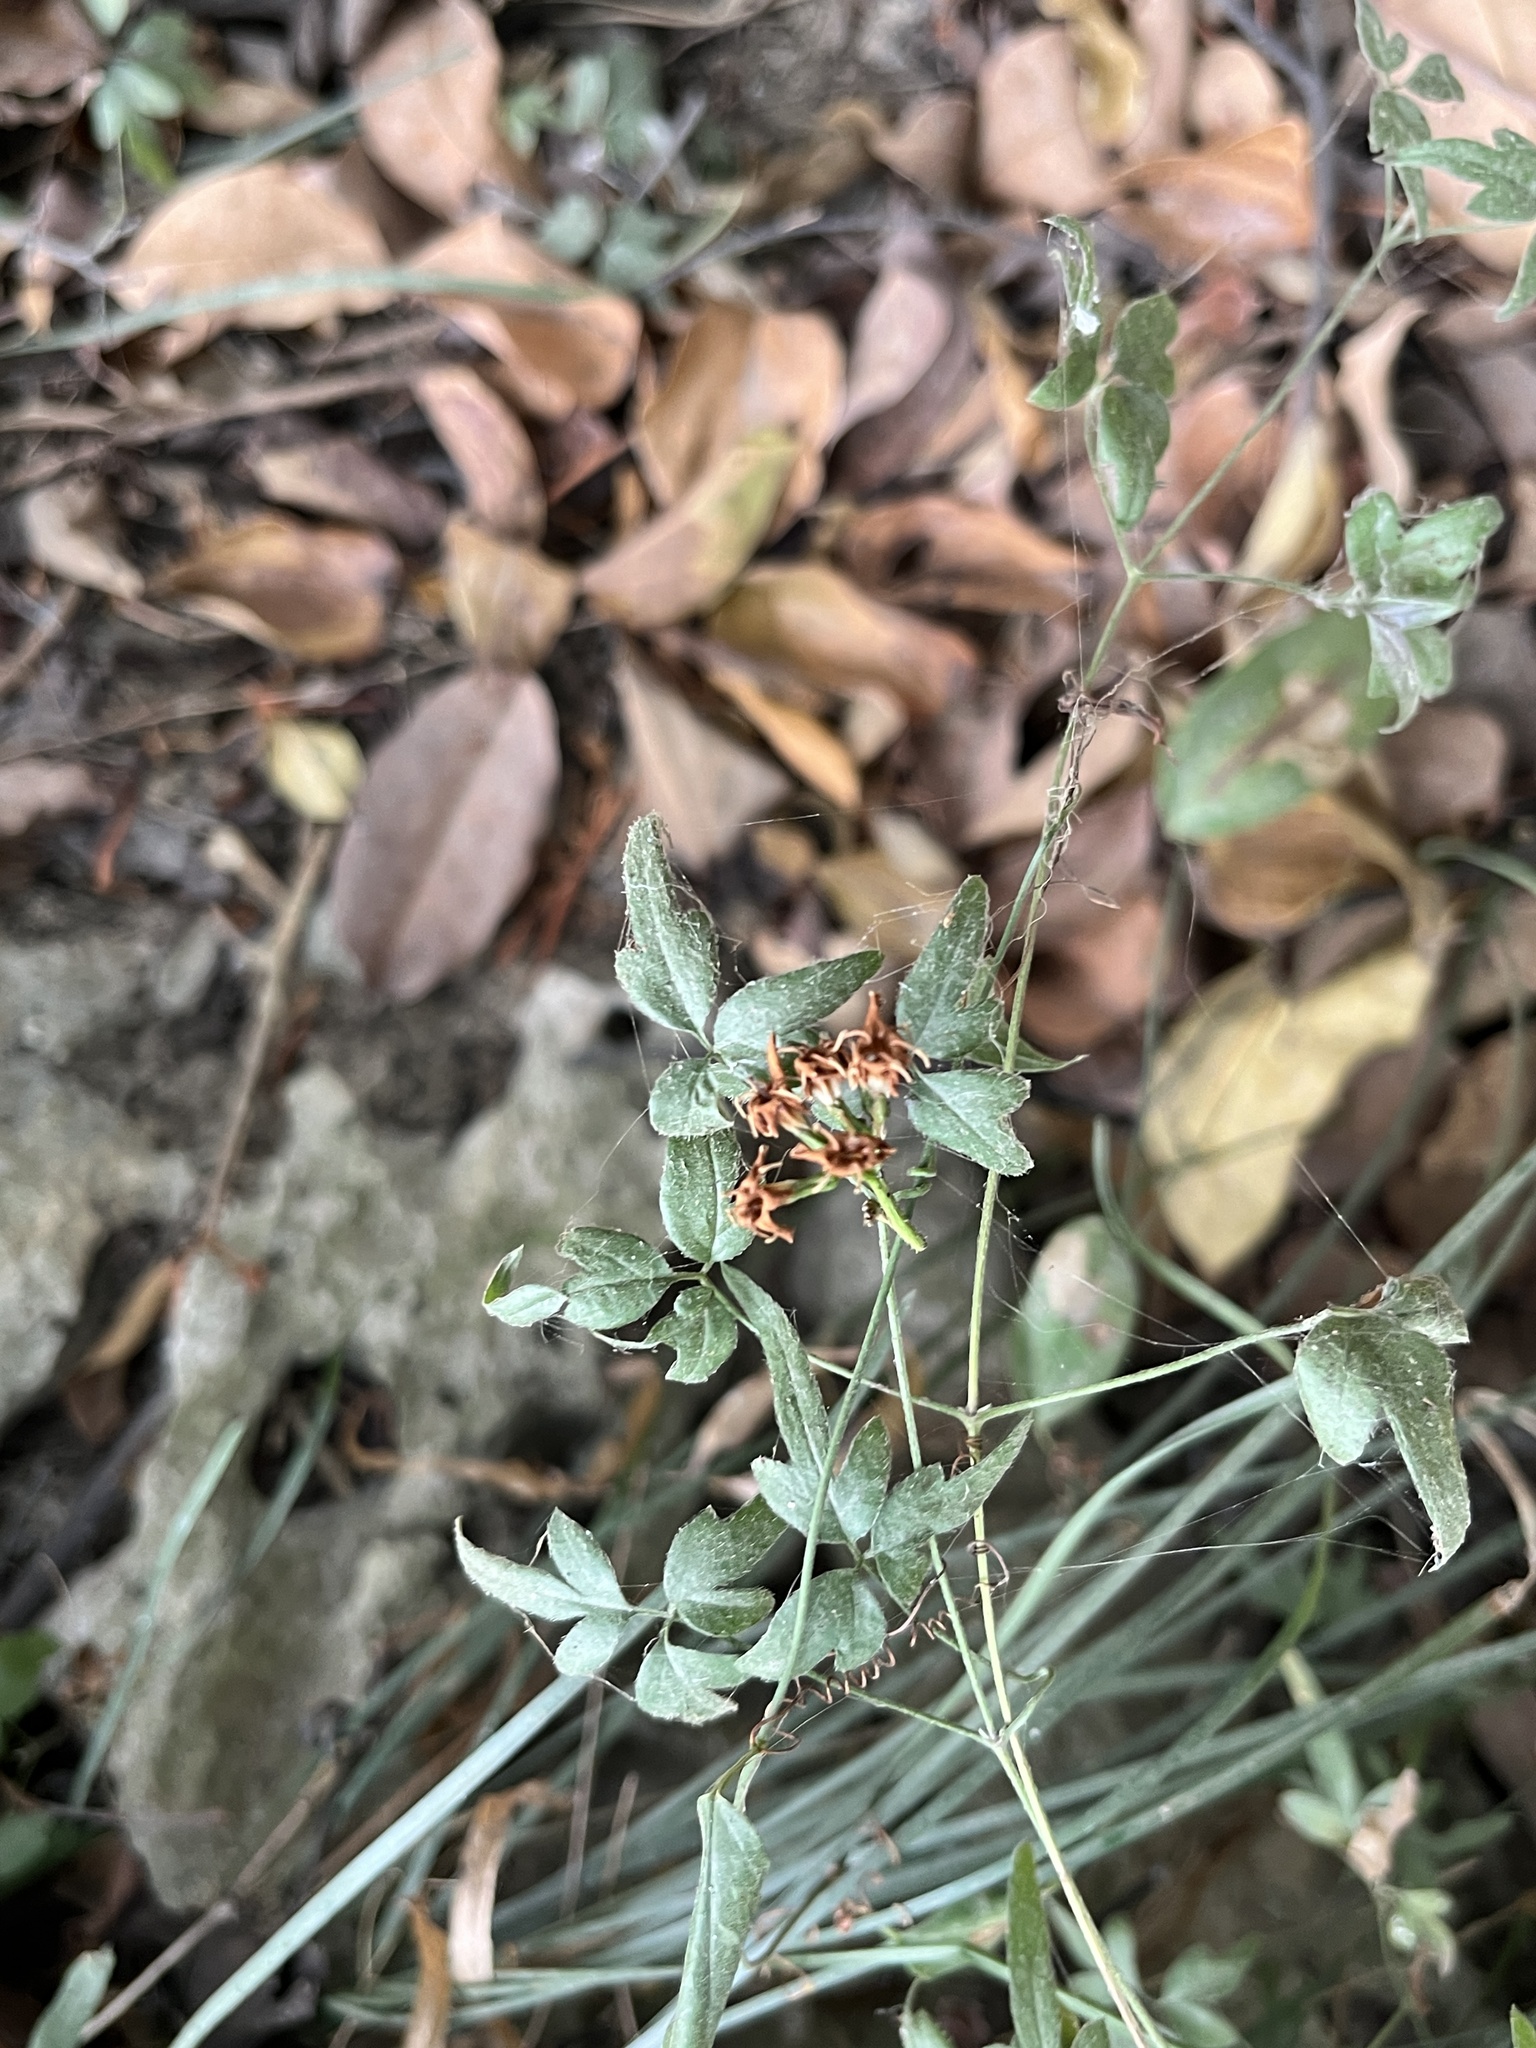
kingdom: Plantae
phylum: Tracheophyta
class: Magnoliopsida
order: Ranunculales
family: Ranunculaceae
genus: Clematis
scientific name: Clematis formosana
